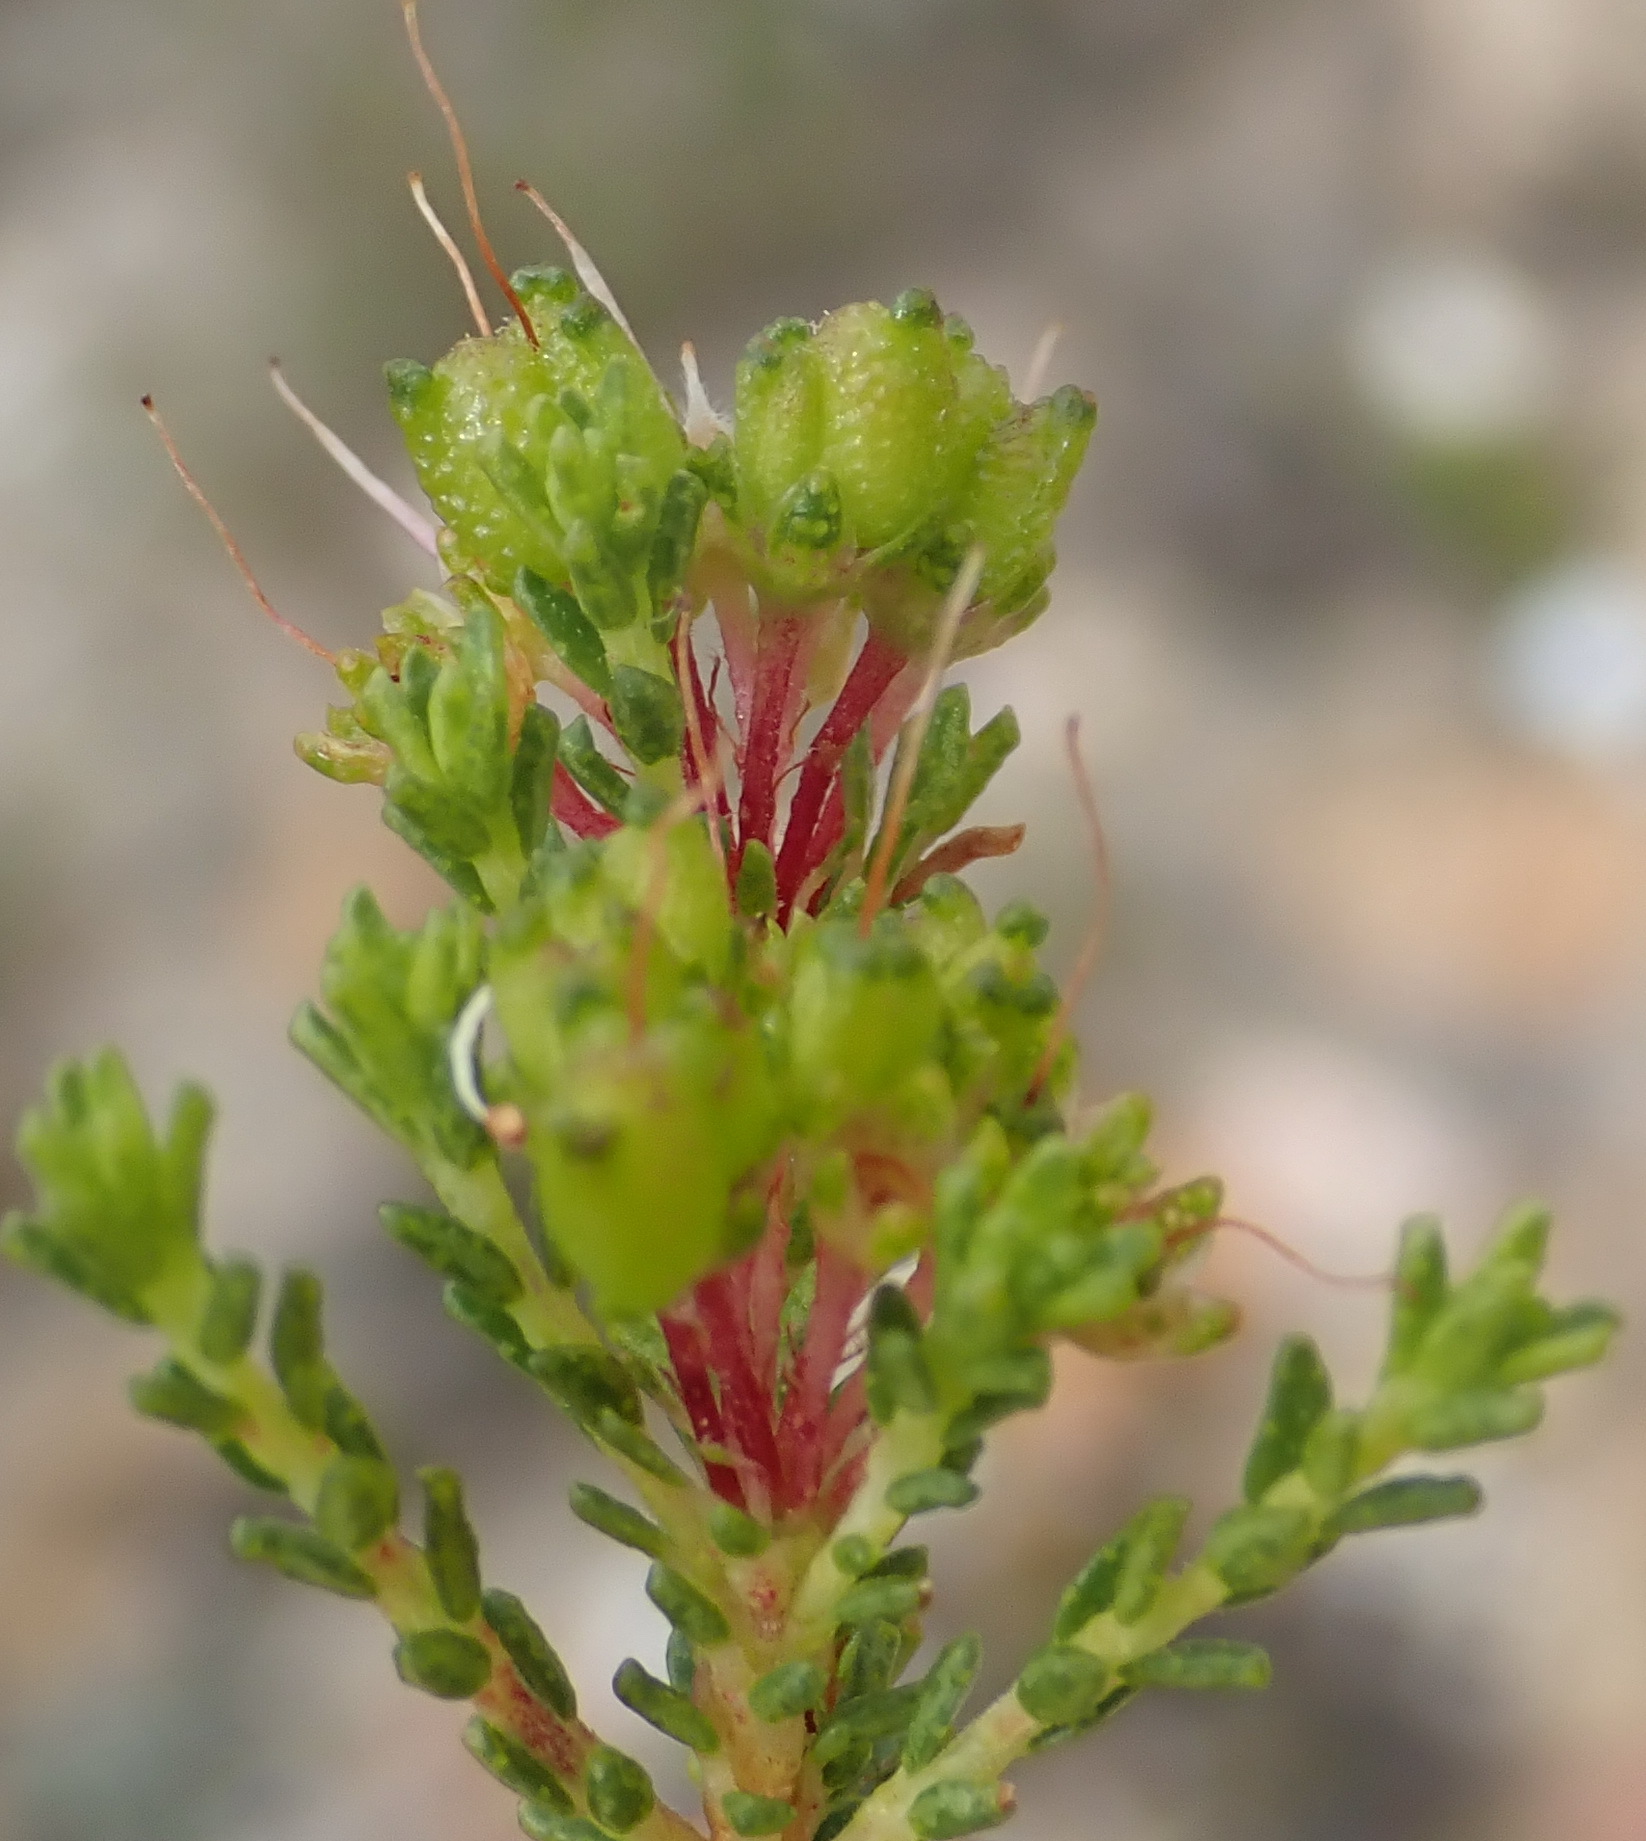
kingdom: Plantae
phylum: Tracheophyta
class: Magnoliopsida
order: Sapindales
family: Rutaceae
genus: Agathosma
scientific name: Agathosma capensis
